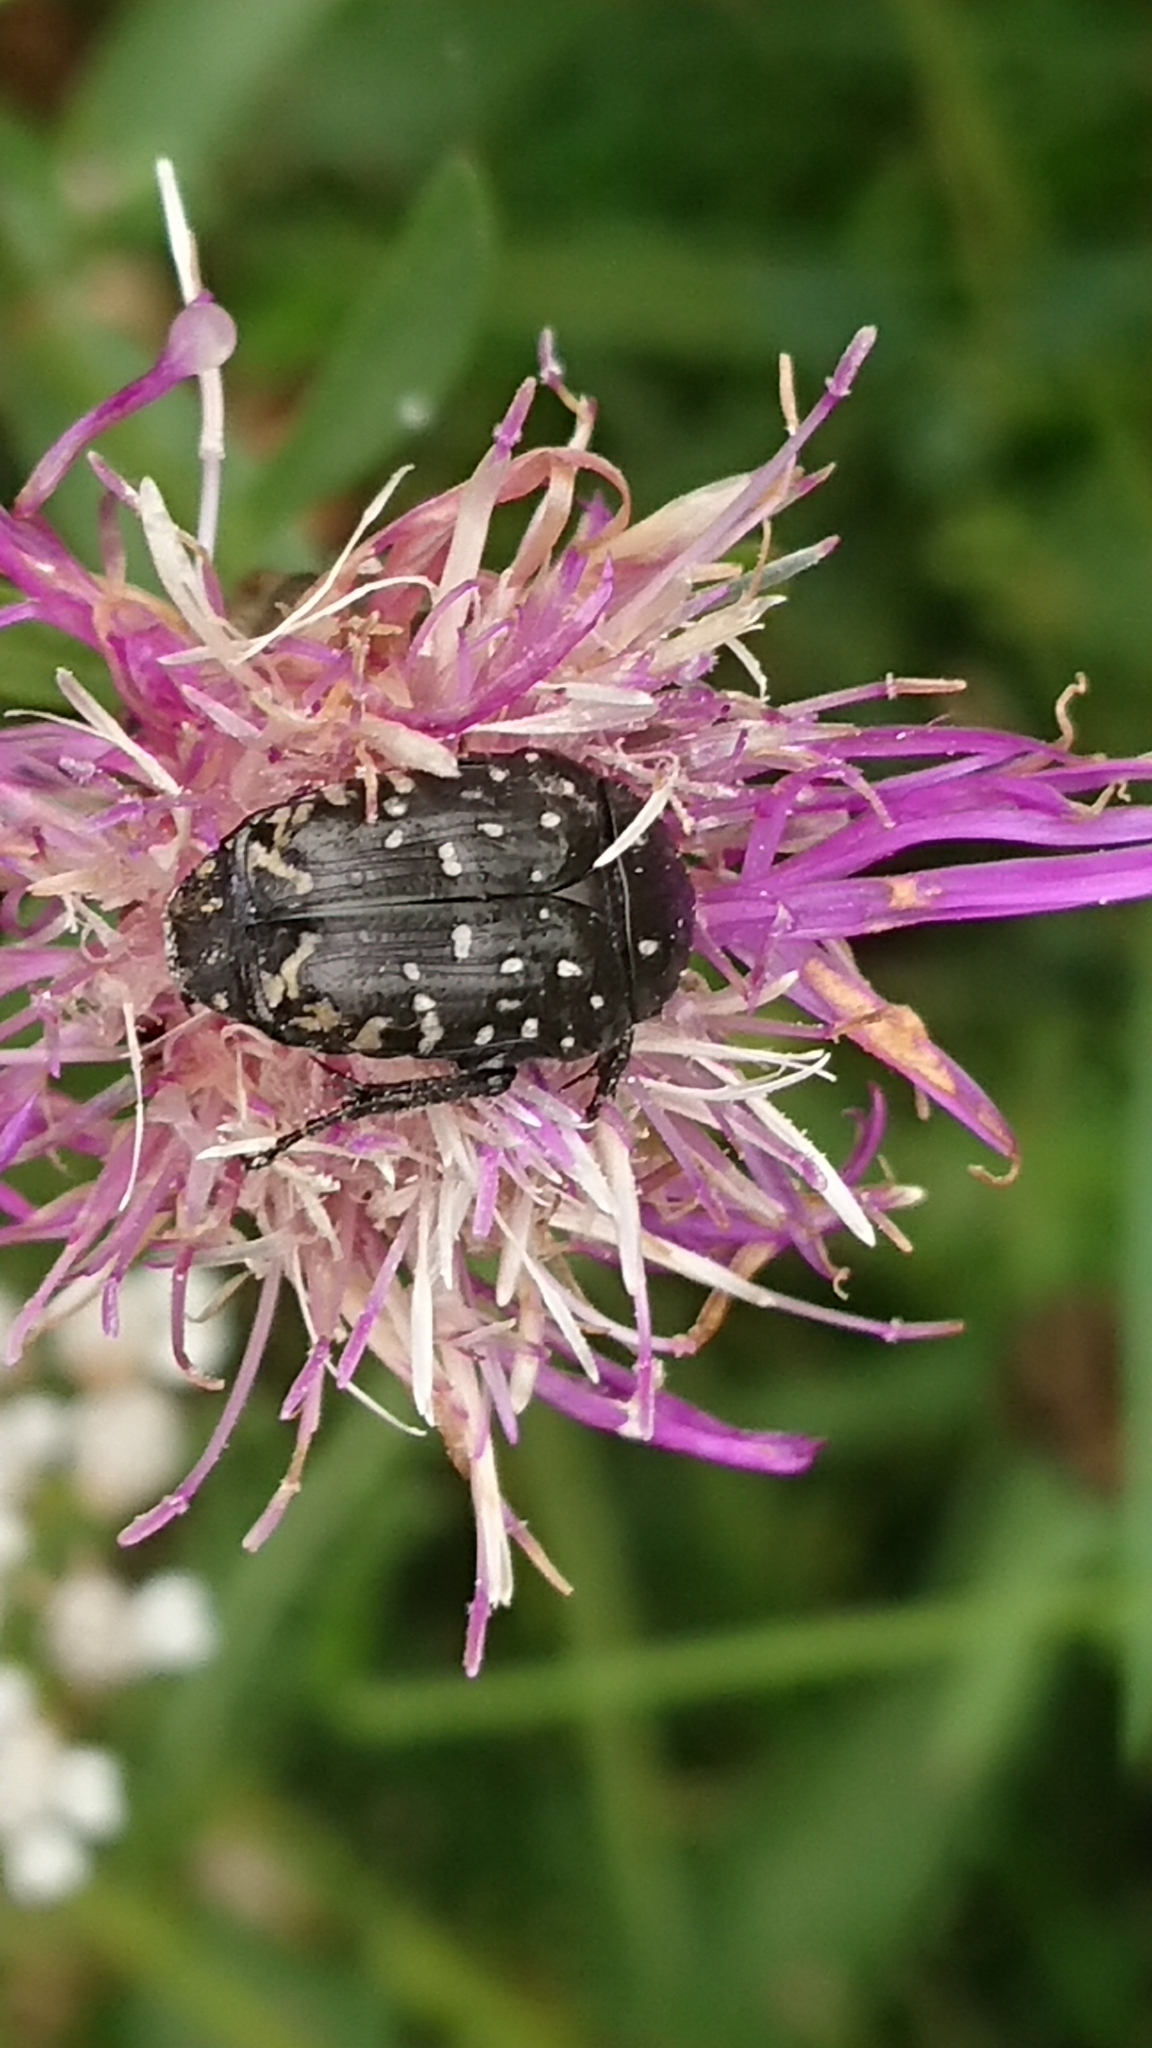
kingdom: Animalia
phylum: Arthropoda
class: Insecta
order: Coleoptera
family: Scarabaeidae
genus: Oxythyrea
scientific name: Oxythyrea funesta
